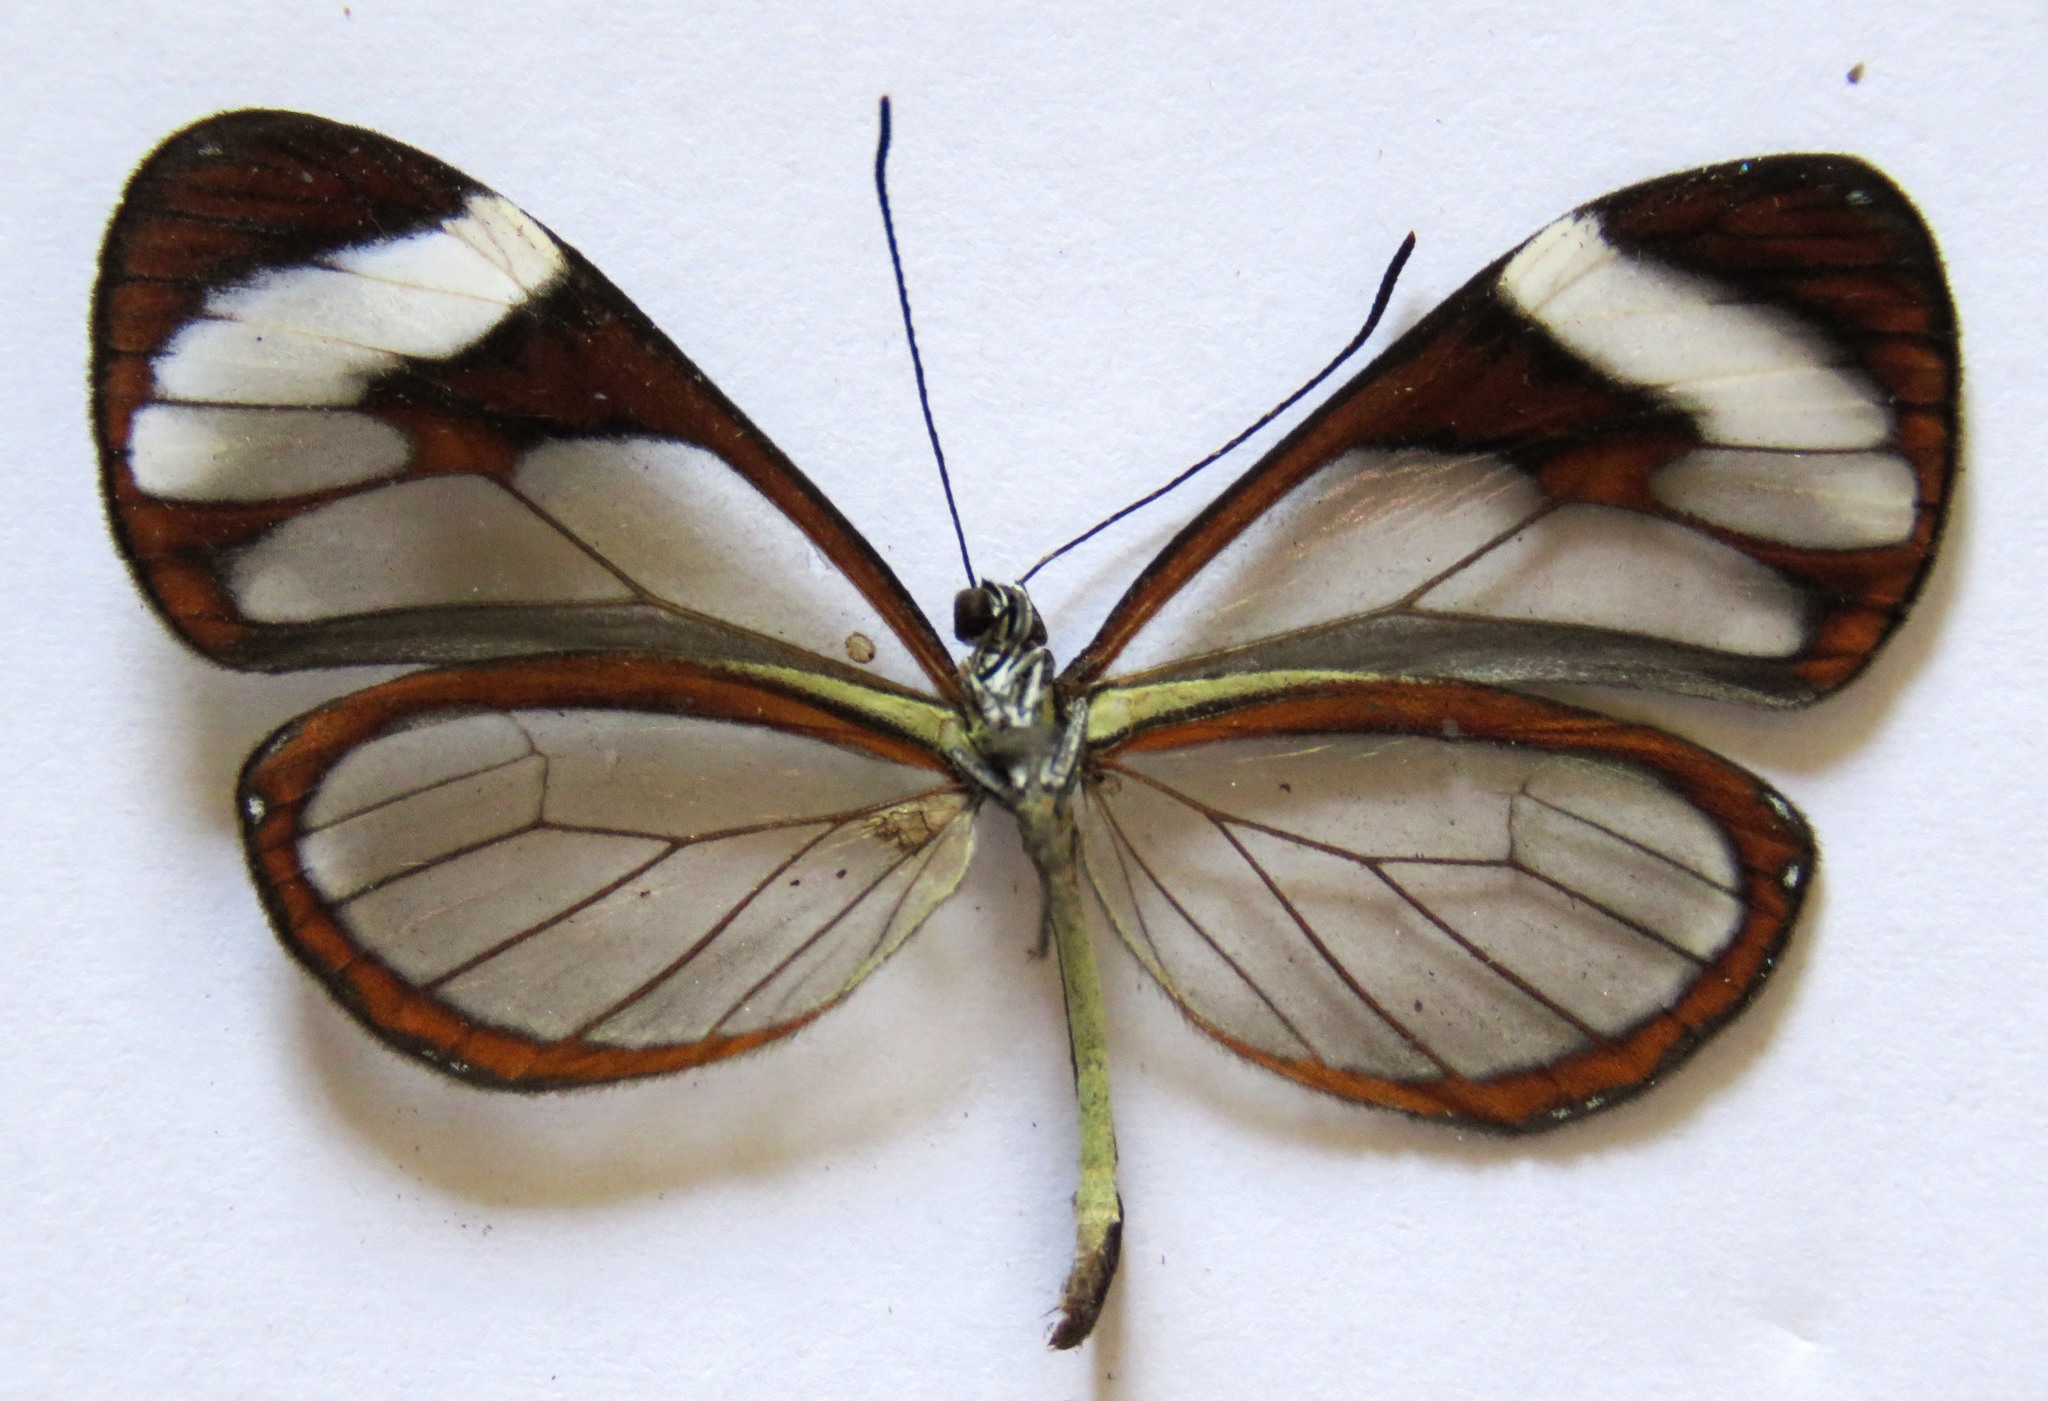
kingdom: Animalia
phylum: Arthropoda
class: Insecta
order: Lepidoptera
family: Nymphalidae
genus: Ithomia
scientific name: Ithomia patilla
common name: Patilla clearwing
